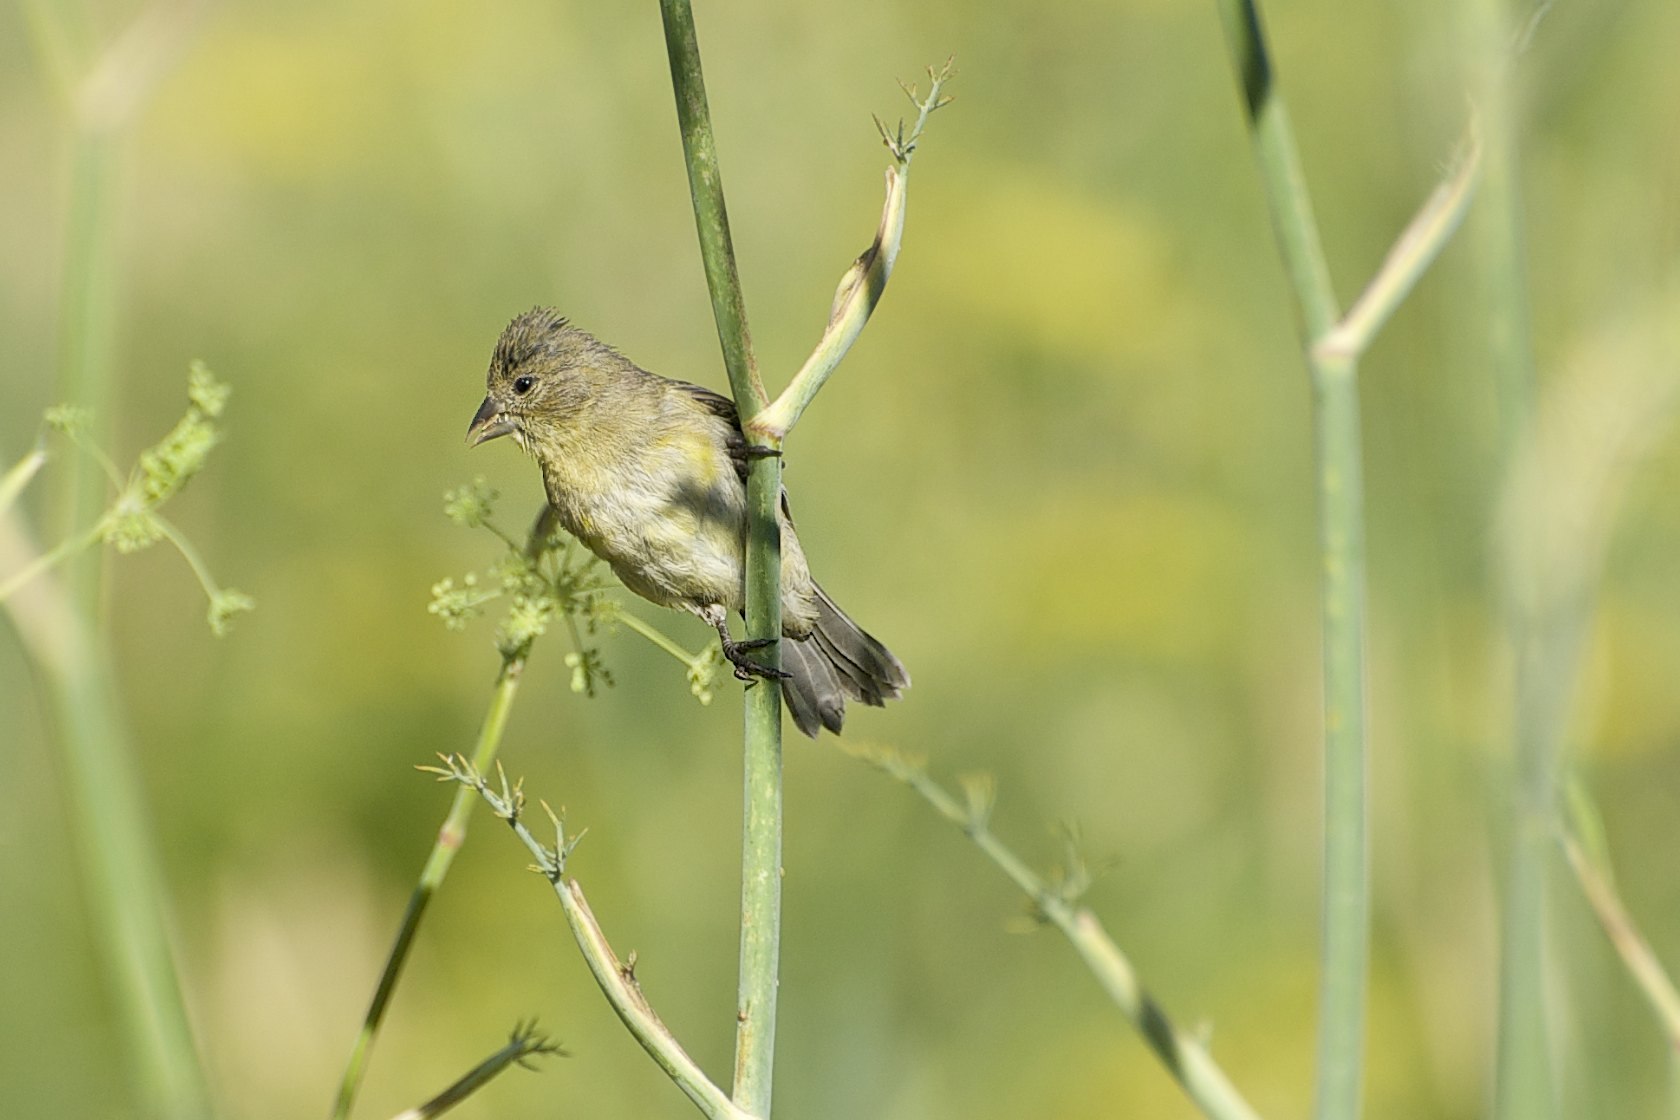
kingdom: Animalia
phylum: Chordata
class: Aves
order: Passeriformes
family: Fringillidae
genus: Spinus
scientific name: Spinus psaltria
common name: Lesser goldfinch
